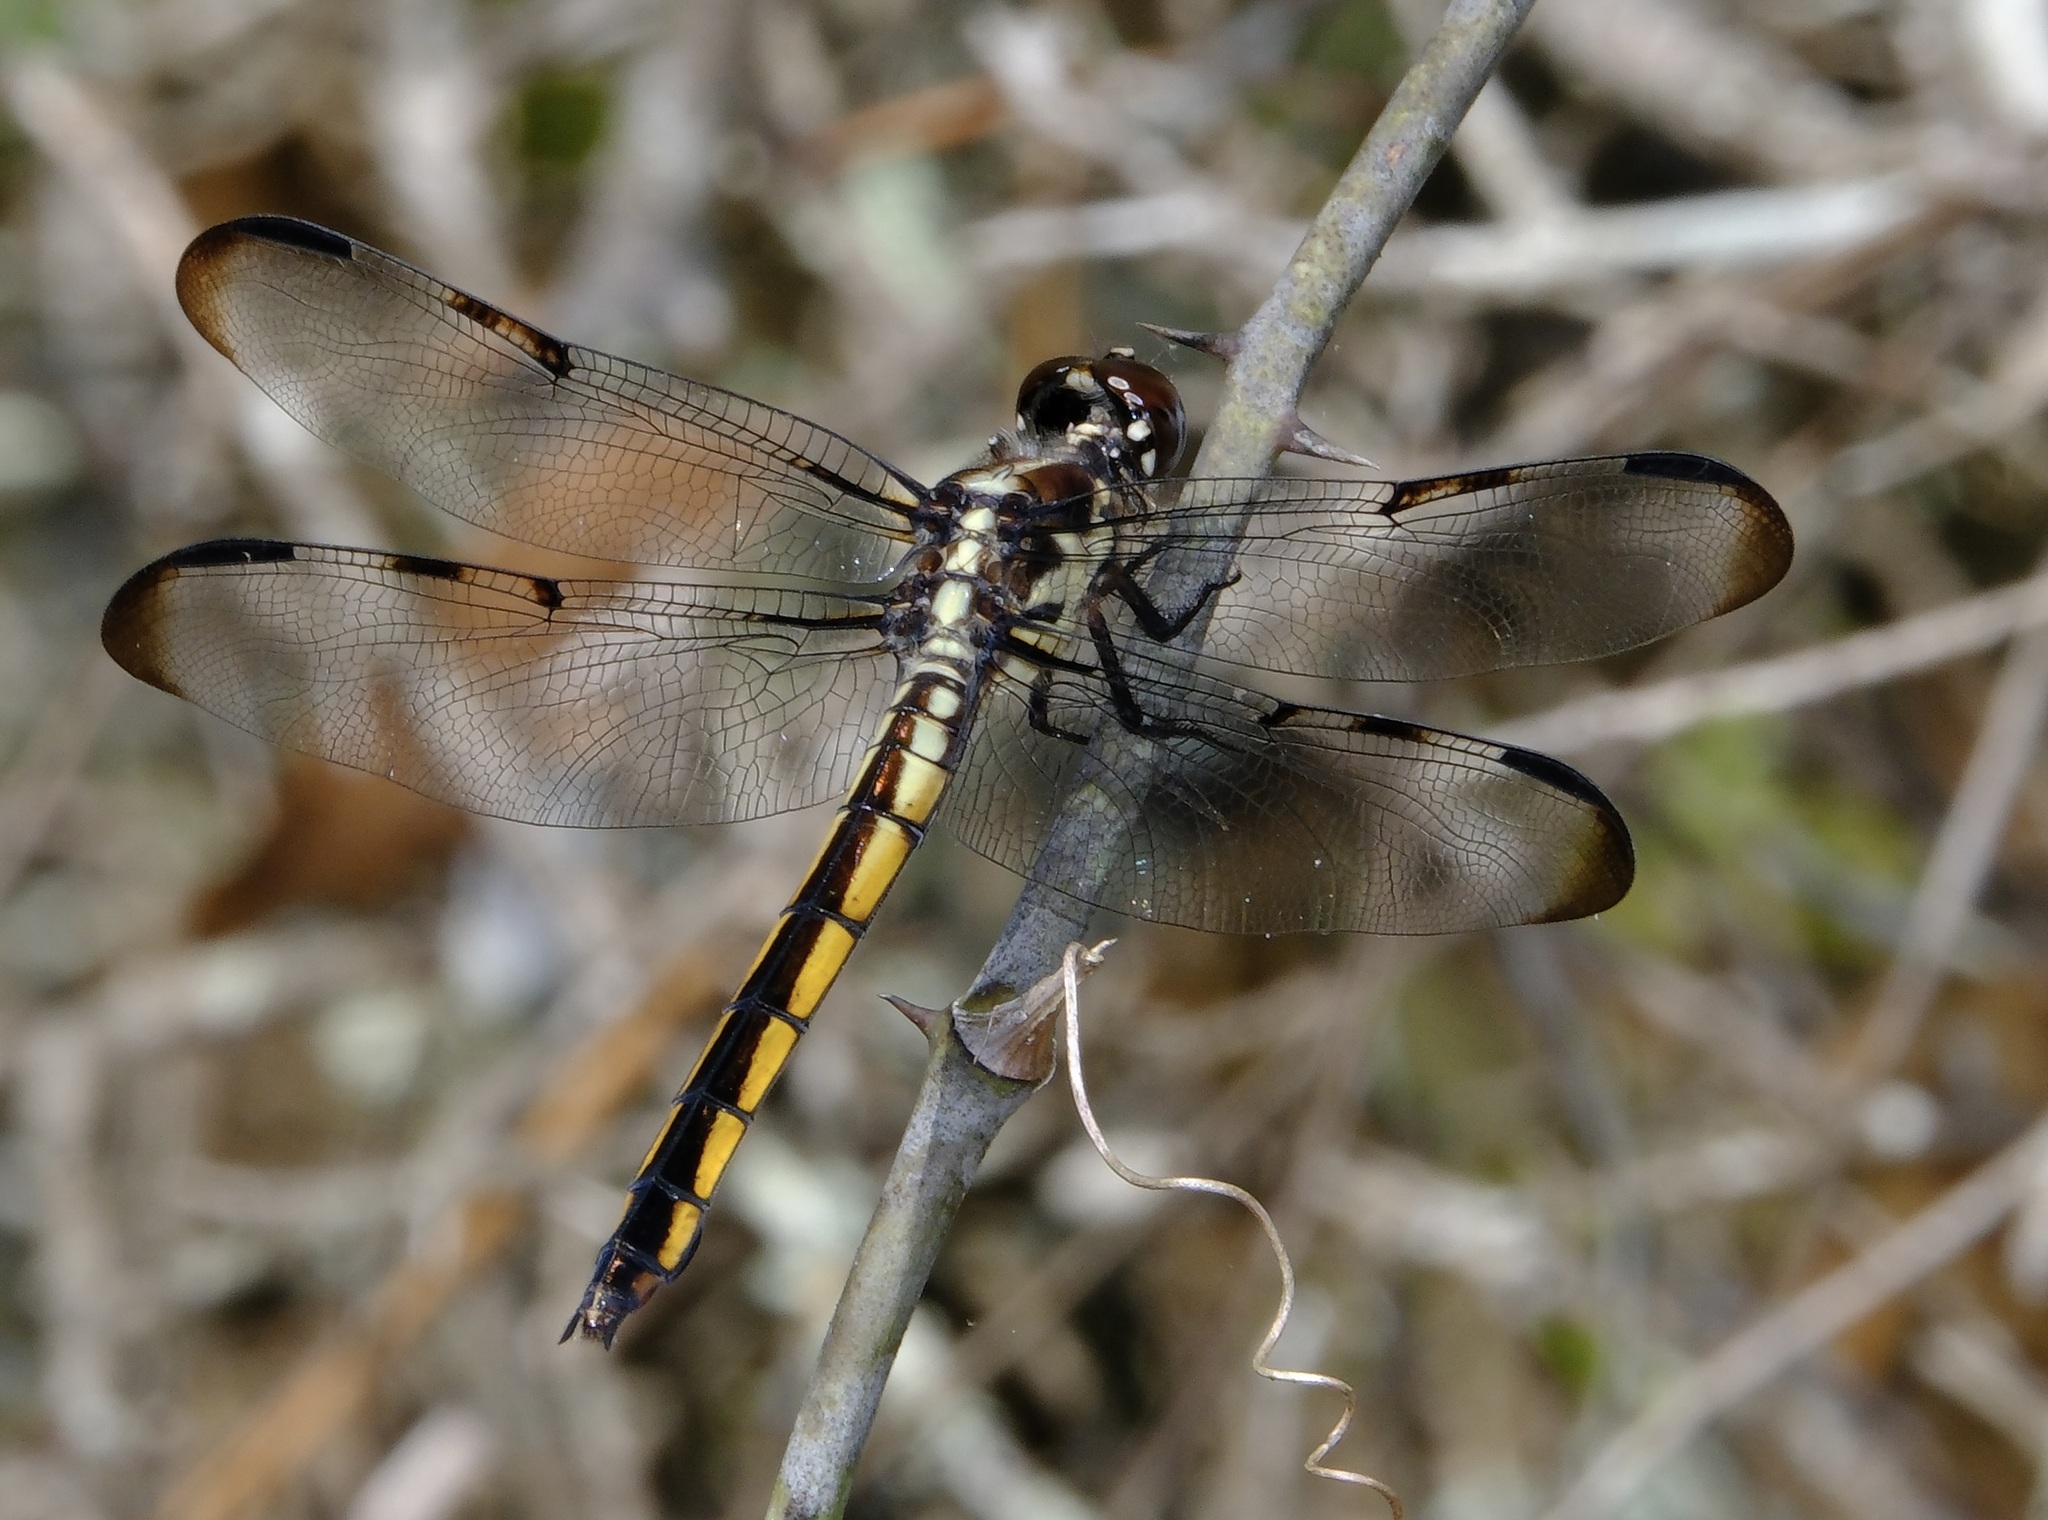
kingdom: Animalia
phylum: Arthropoda
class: Insecta
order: Odonata
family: Libellulidae
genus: Libellula
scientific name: Libellula axilena
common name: Bar-winged skimmer
